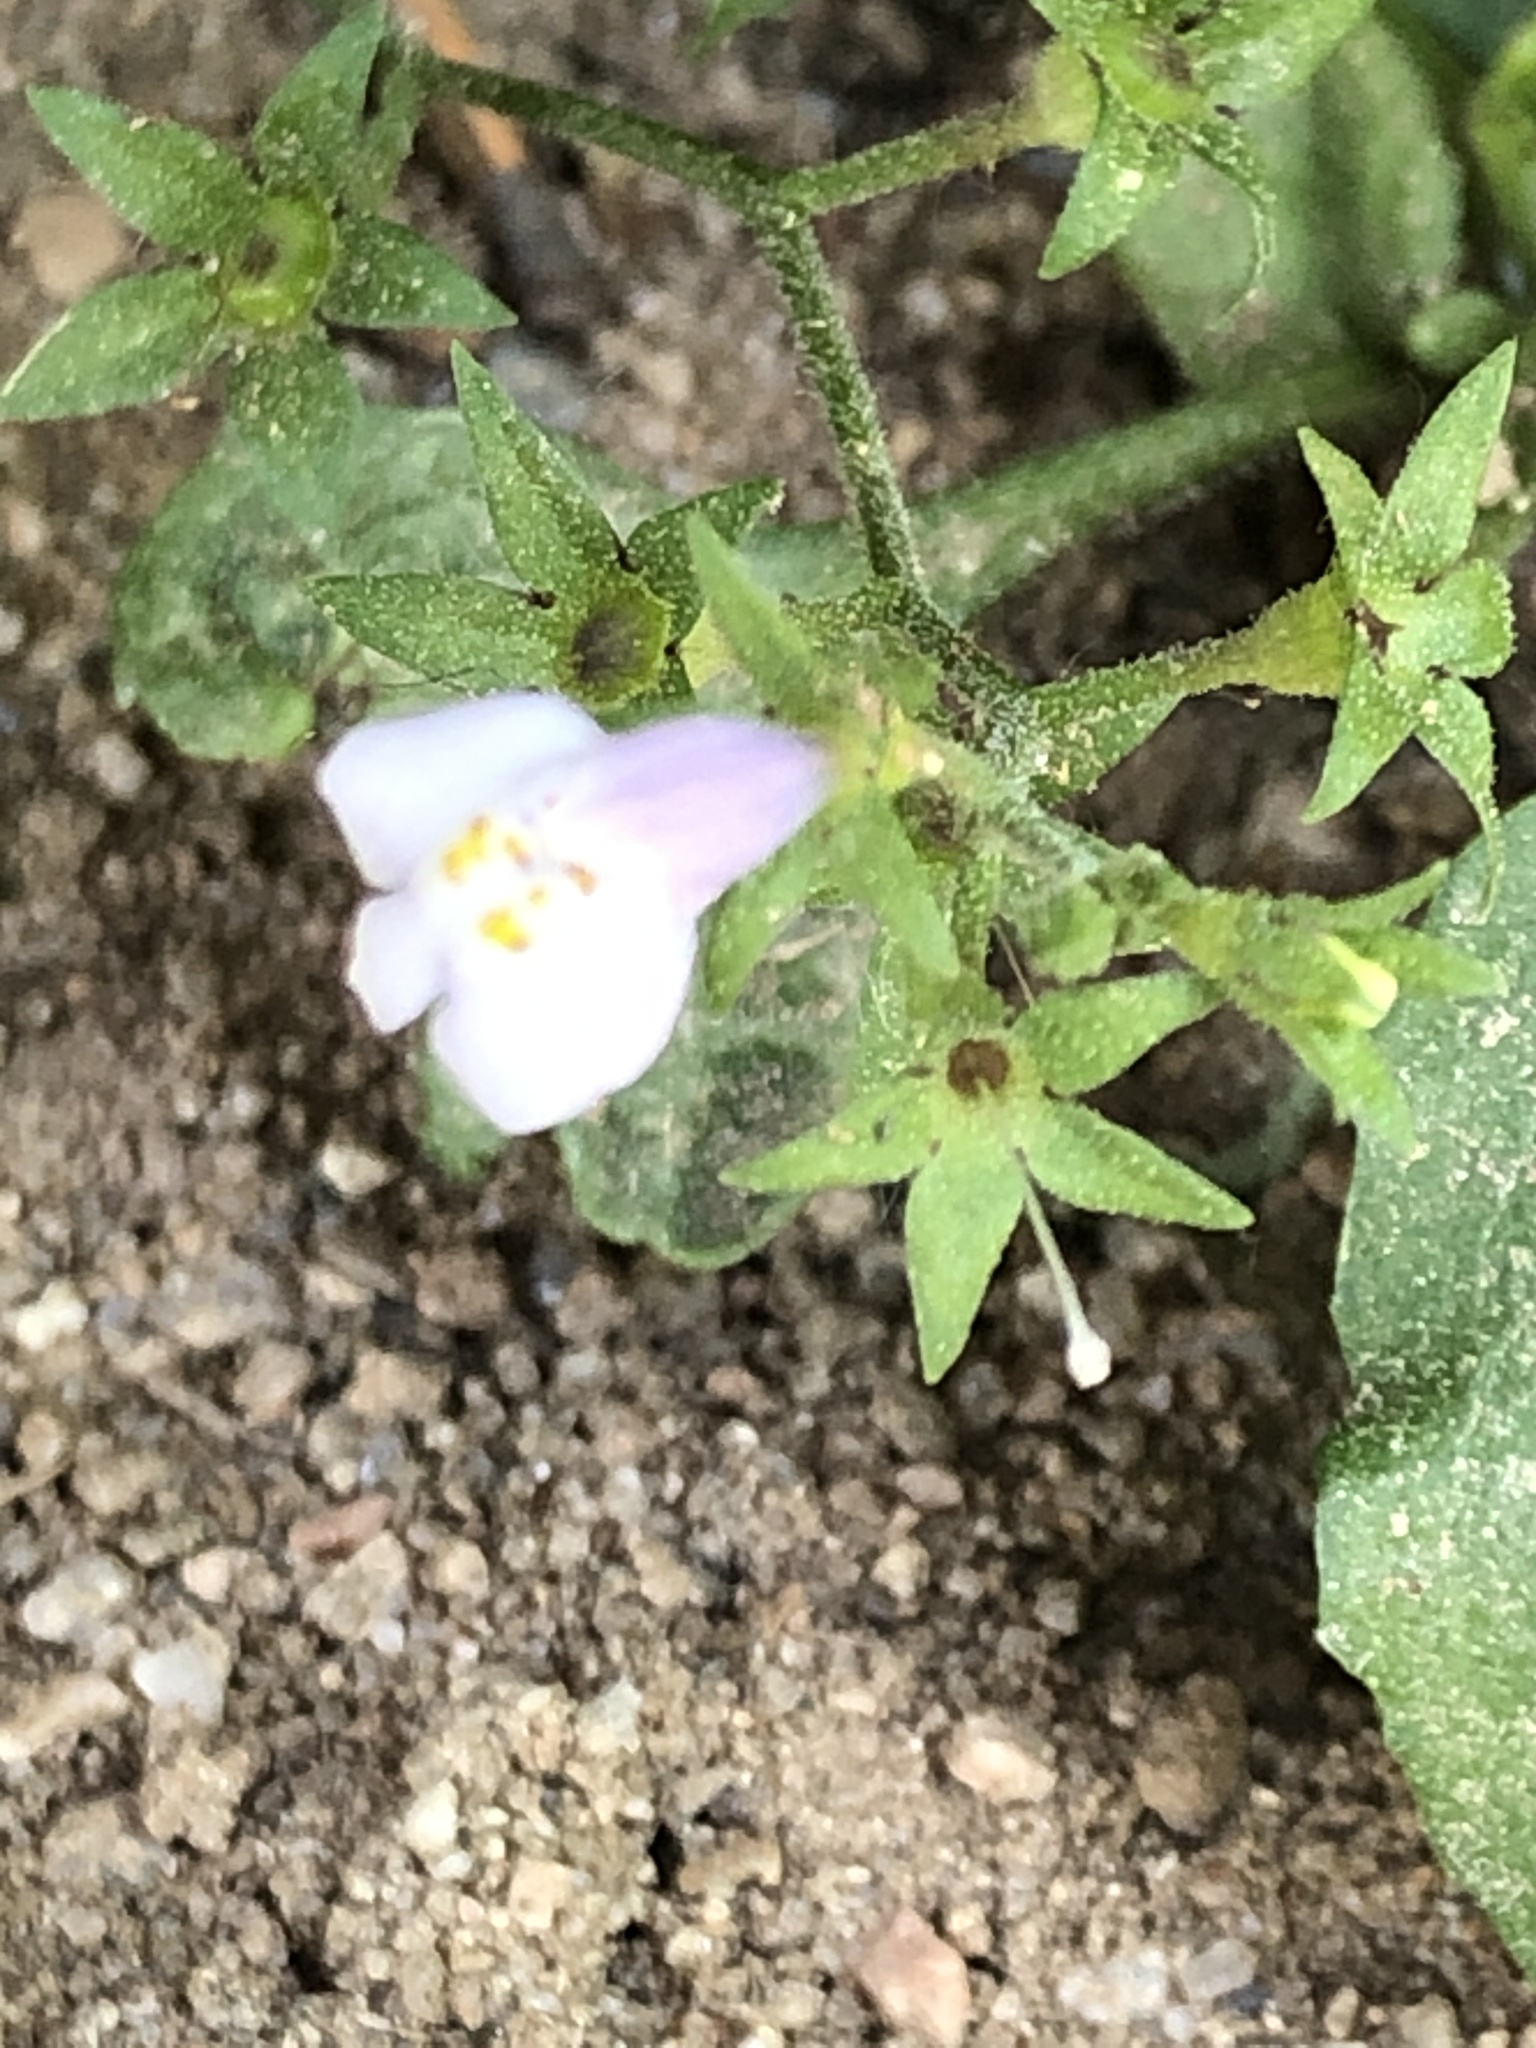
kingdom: Plantae
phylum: Tracheophyta
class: Magnoliopsida
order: Lamiales
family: Mazaceae
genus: Mazus
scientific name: Mazus pumilus
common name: Japanese mazus
